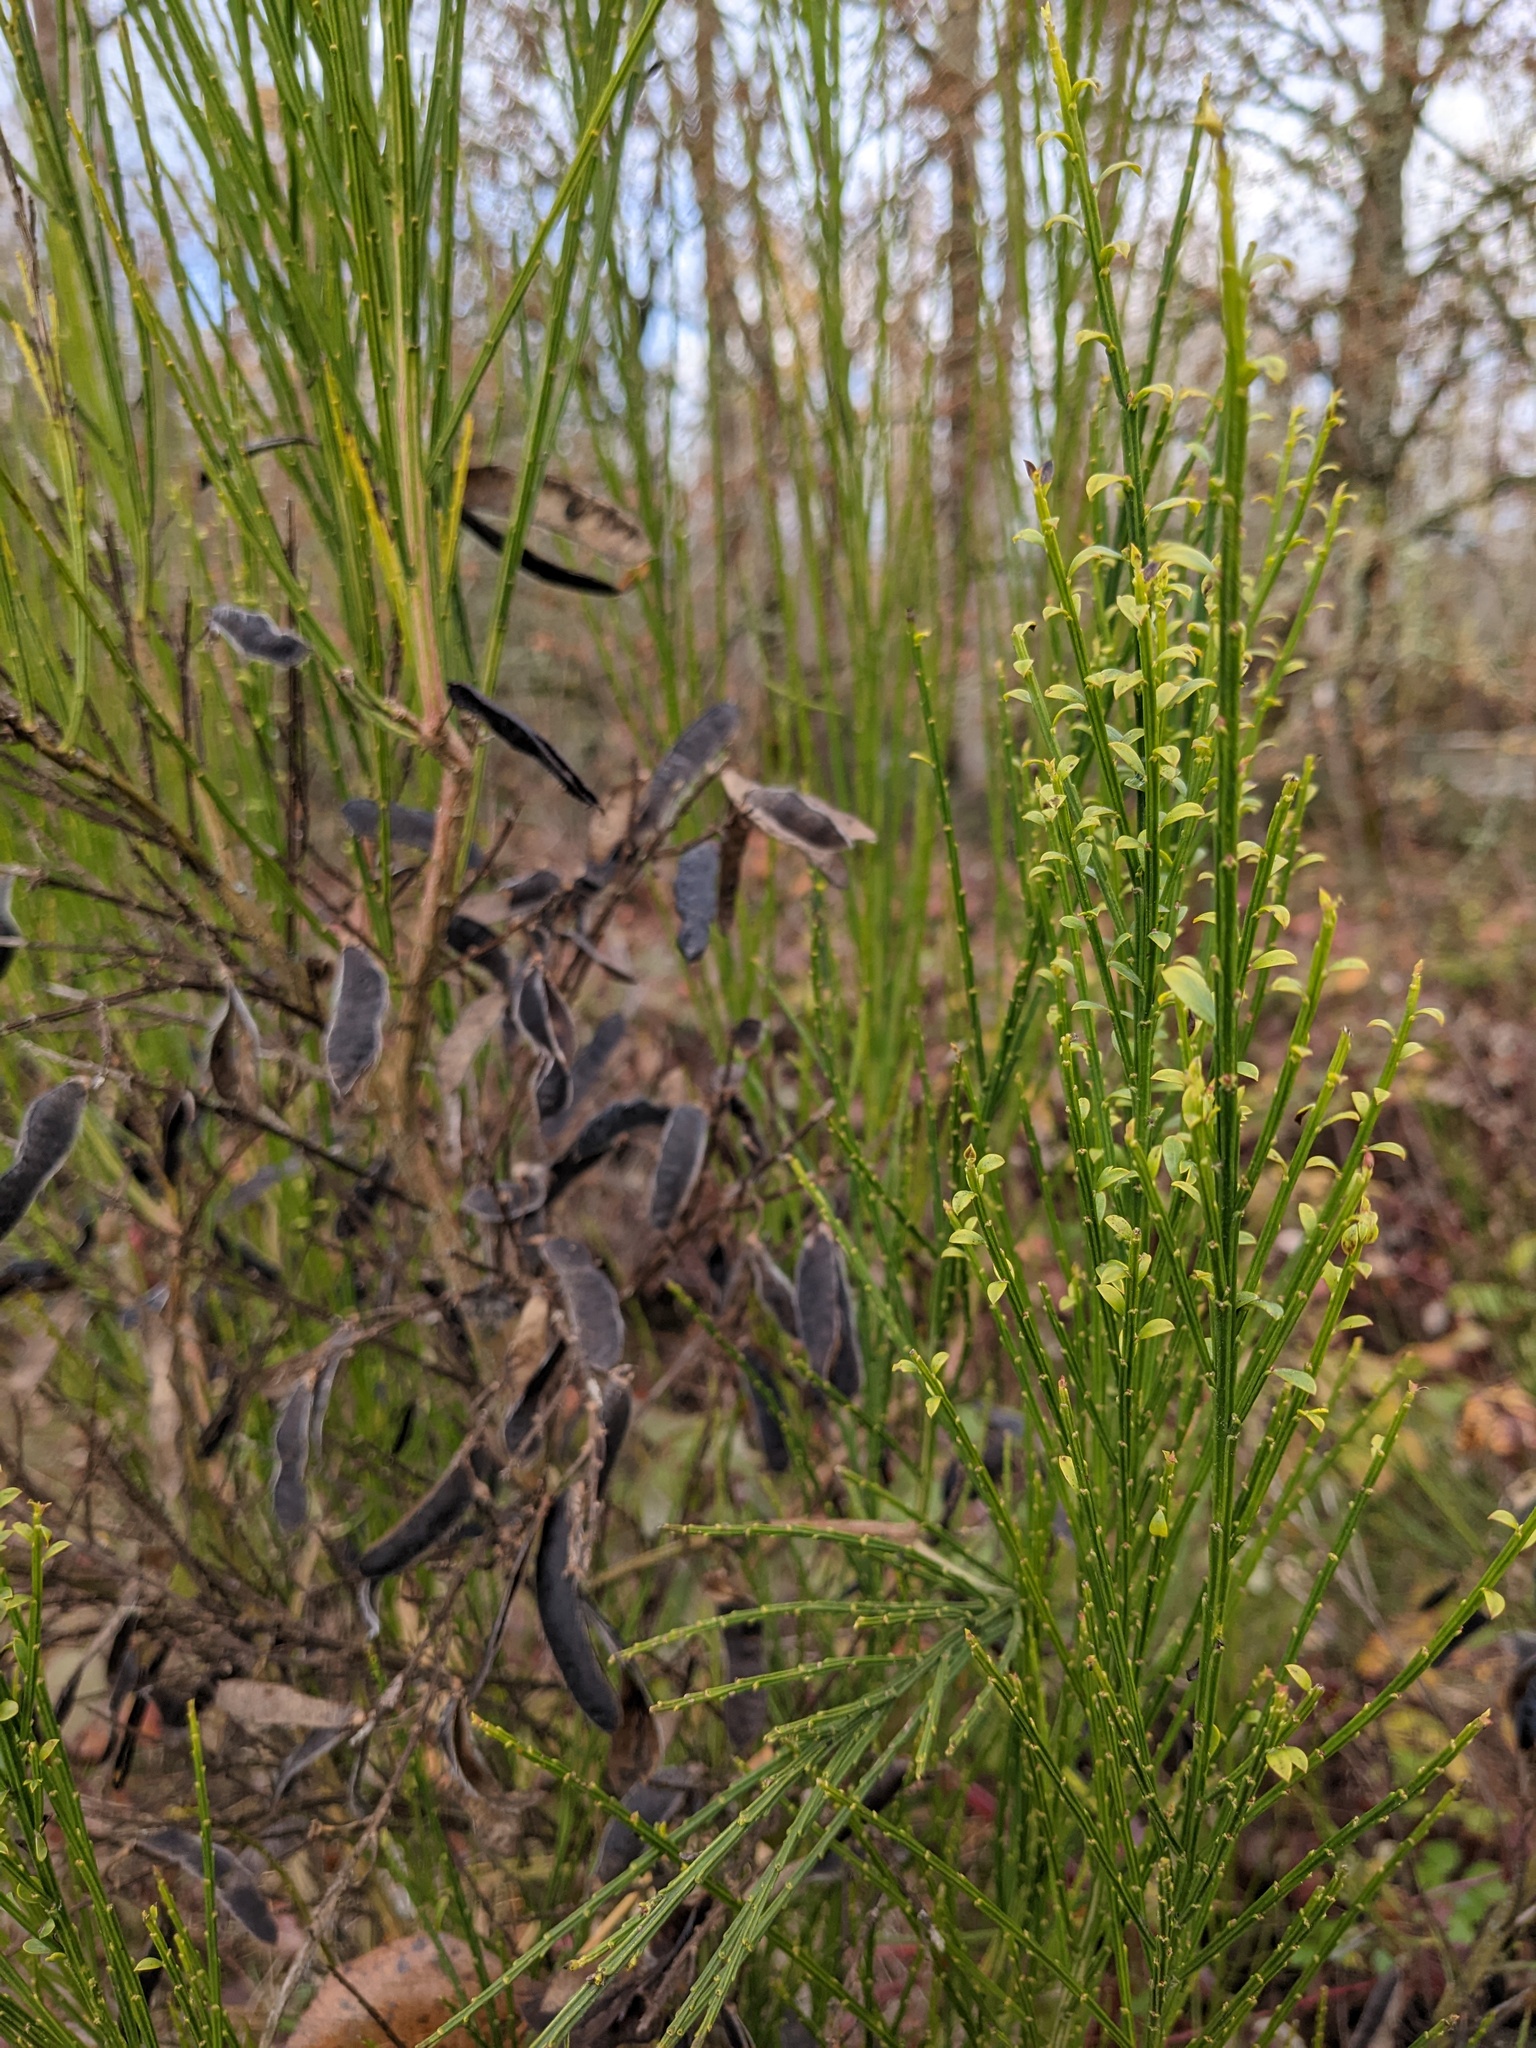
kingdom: Plantae
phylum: Tracheophyta
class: Magnoliopsida
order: Fabales
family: Fabaceae
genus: Cytisus
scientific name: Cytisus scoparius
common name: Scotch broom
